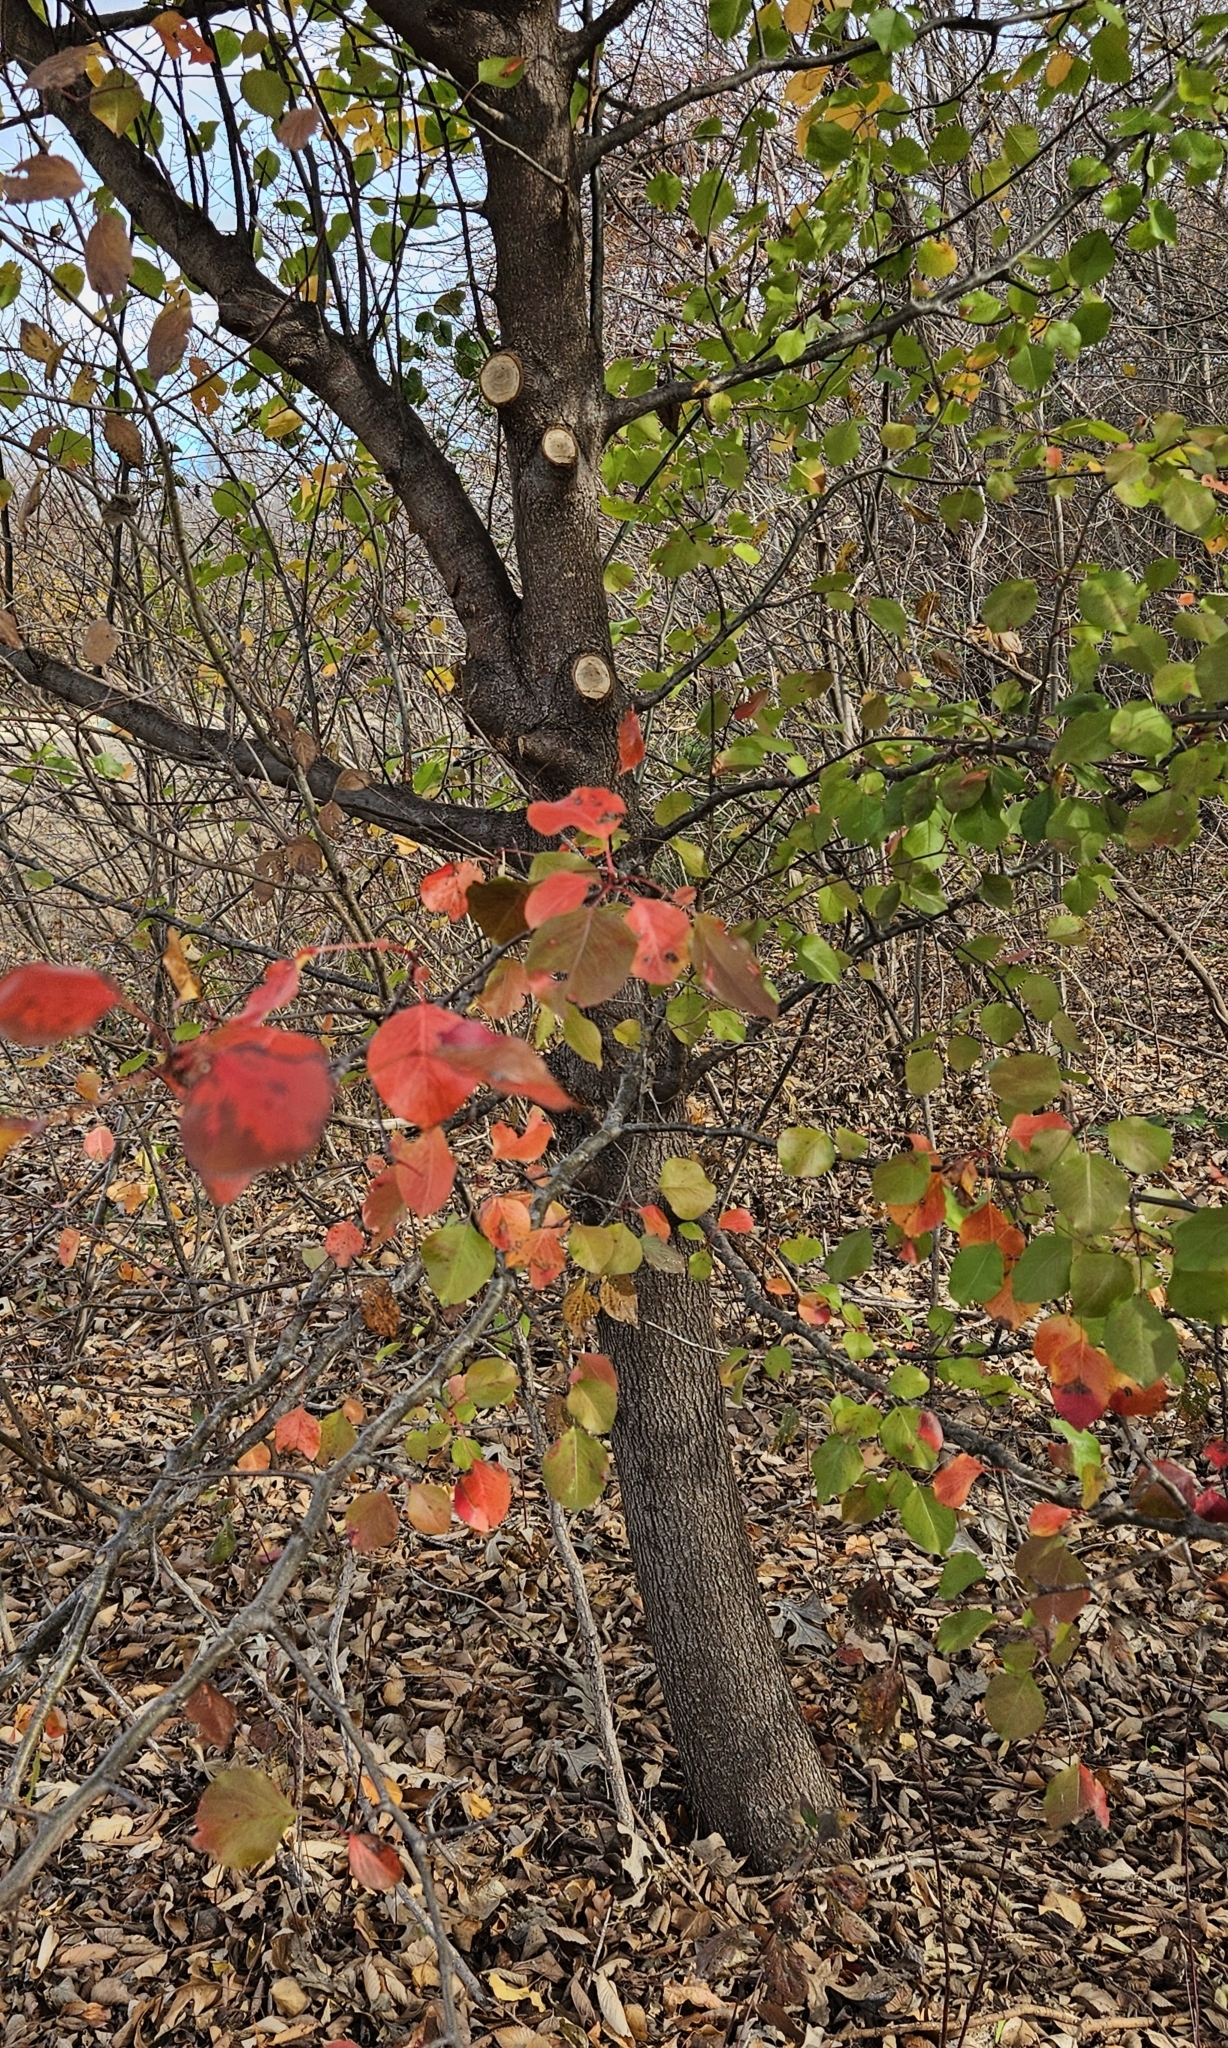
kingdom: Plantae
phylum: Tracheophyta
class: Magnoliopsida
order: Rosales
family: Rosaceae
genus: Pyrus
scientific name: Pyrus calleryana
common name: Callery pear
